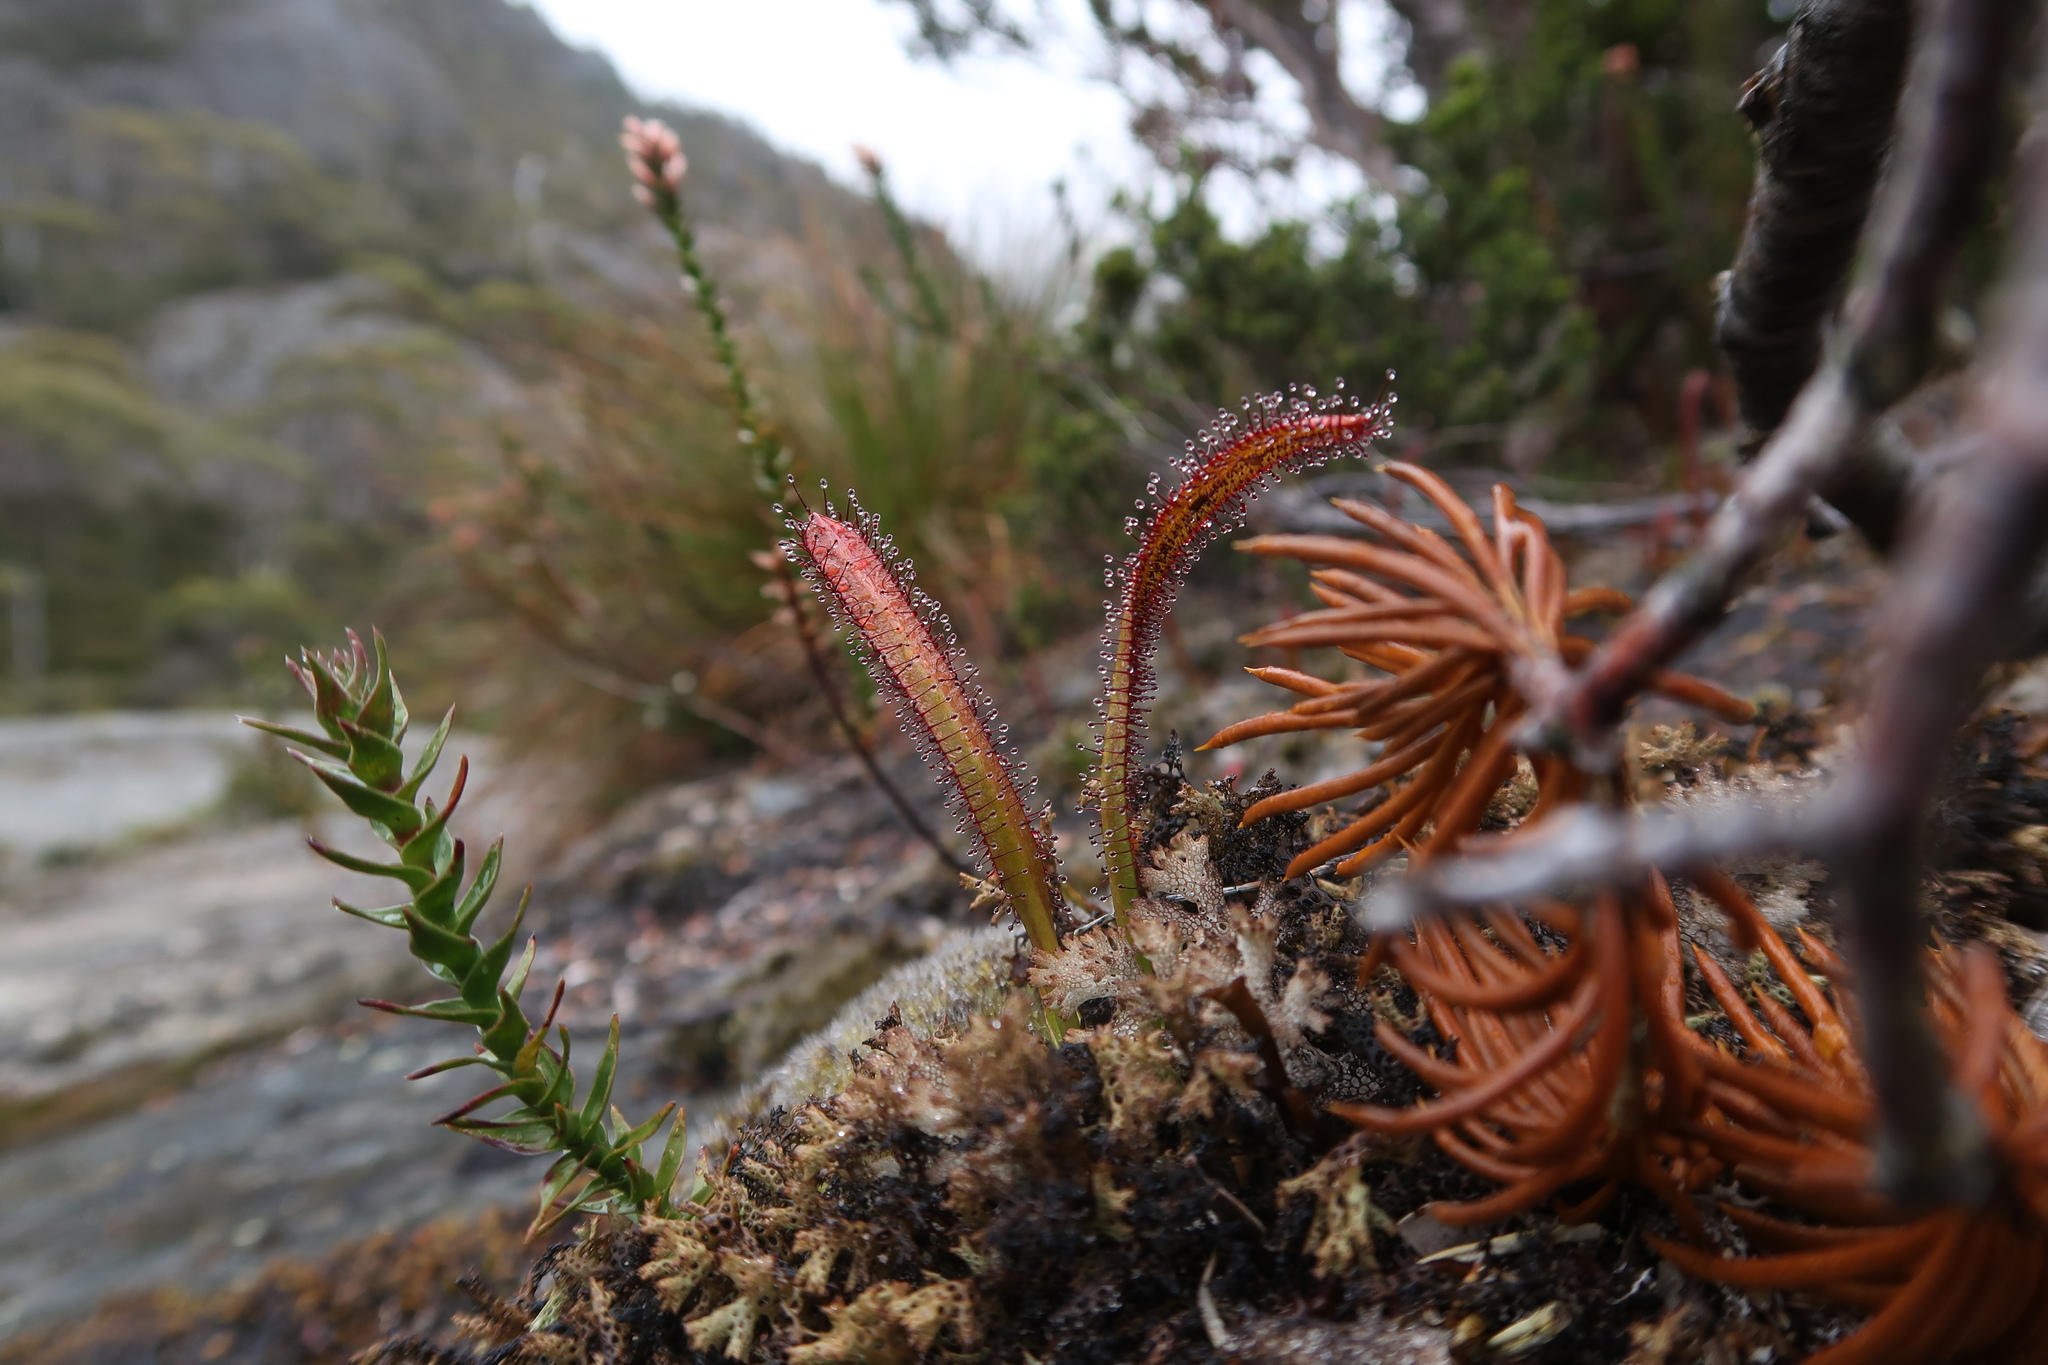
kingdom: Plantae
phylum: Tracheophyta
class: Magnoliopsida
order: Caryophyllales
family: Droseraceae
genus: Drosera
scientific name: Drosera murfetii
